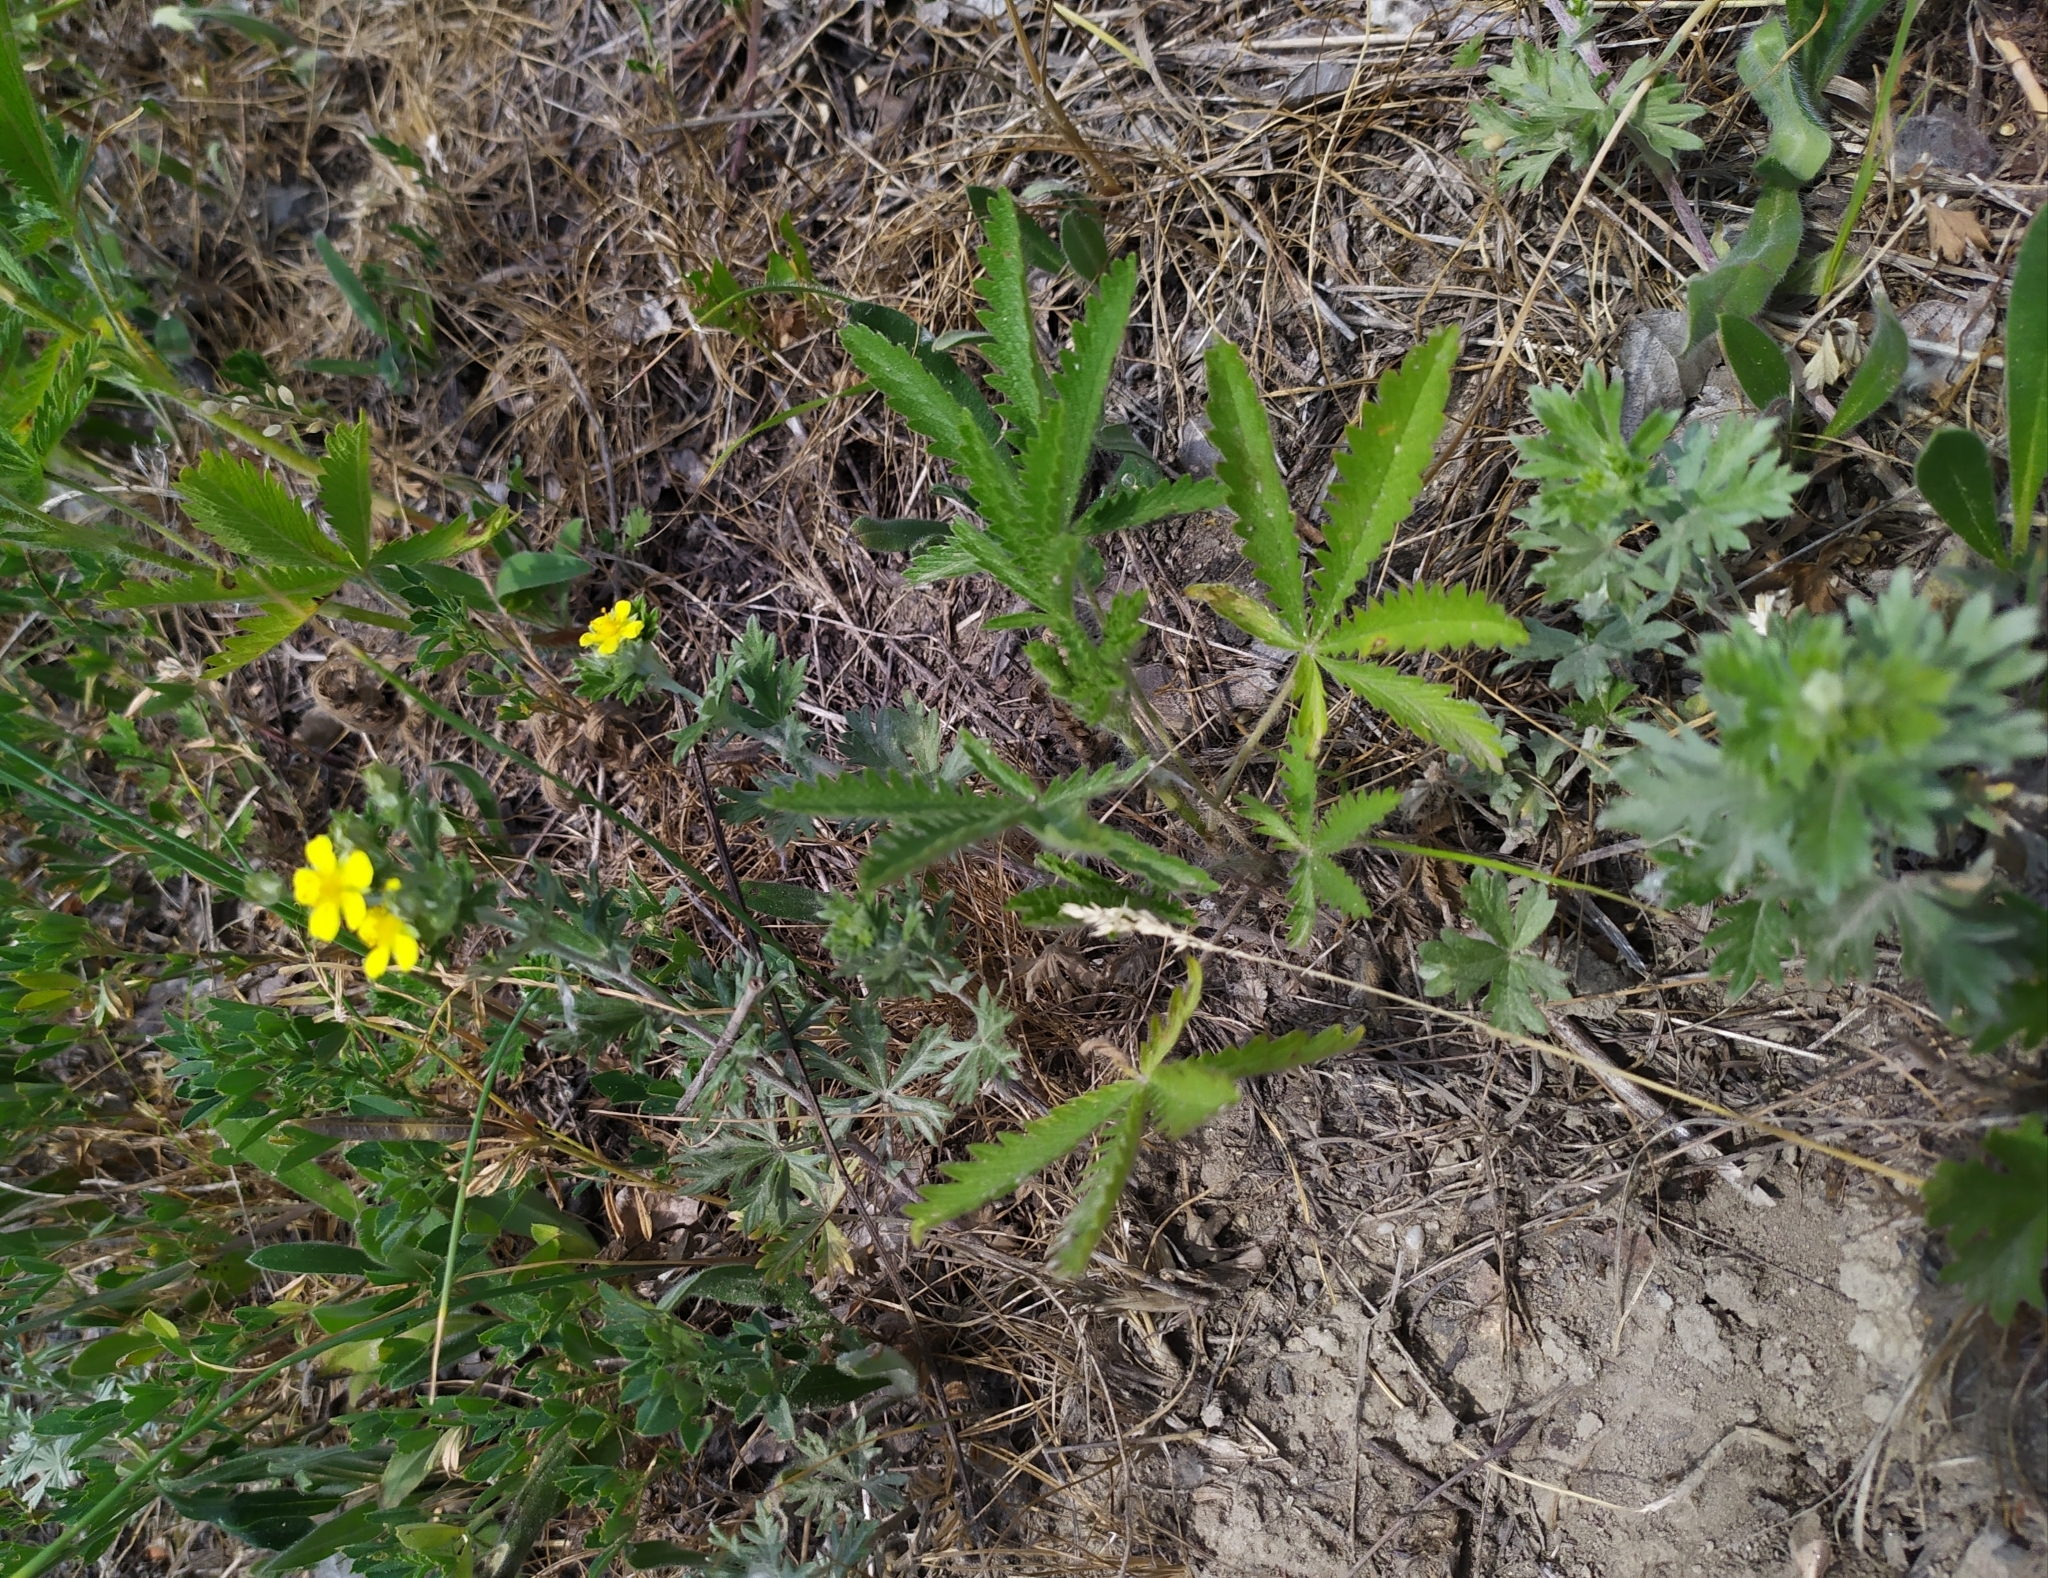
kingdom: Plantae
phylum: Tracheophyta
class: Magnoliopsida
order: Rosales
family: Rosaceae
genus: Potentilla
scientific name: Potentilla recta
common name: Sulphur cinquefoil
